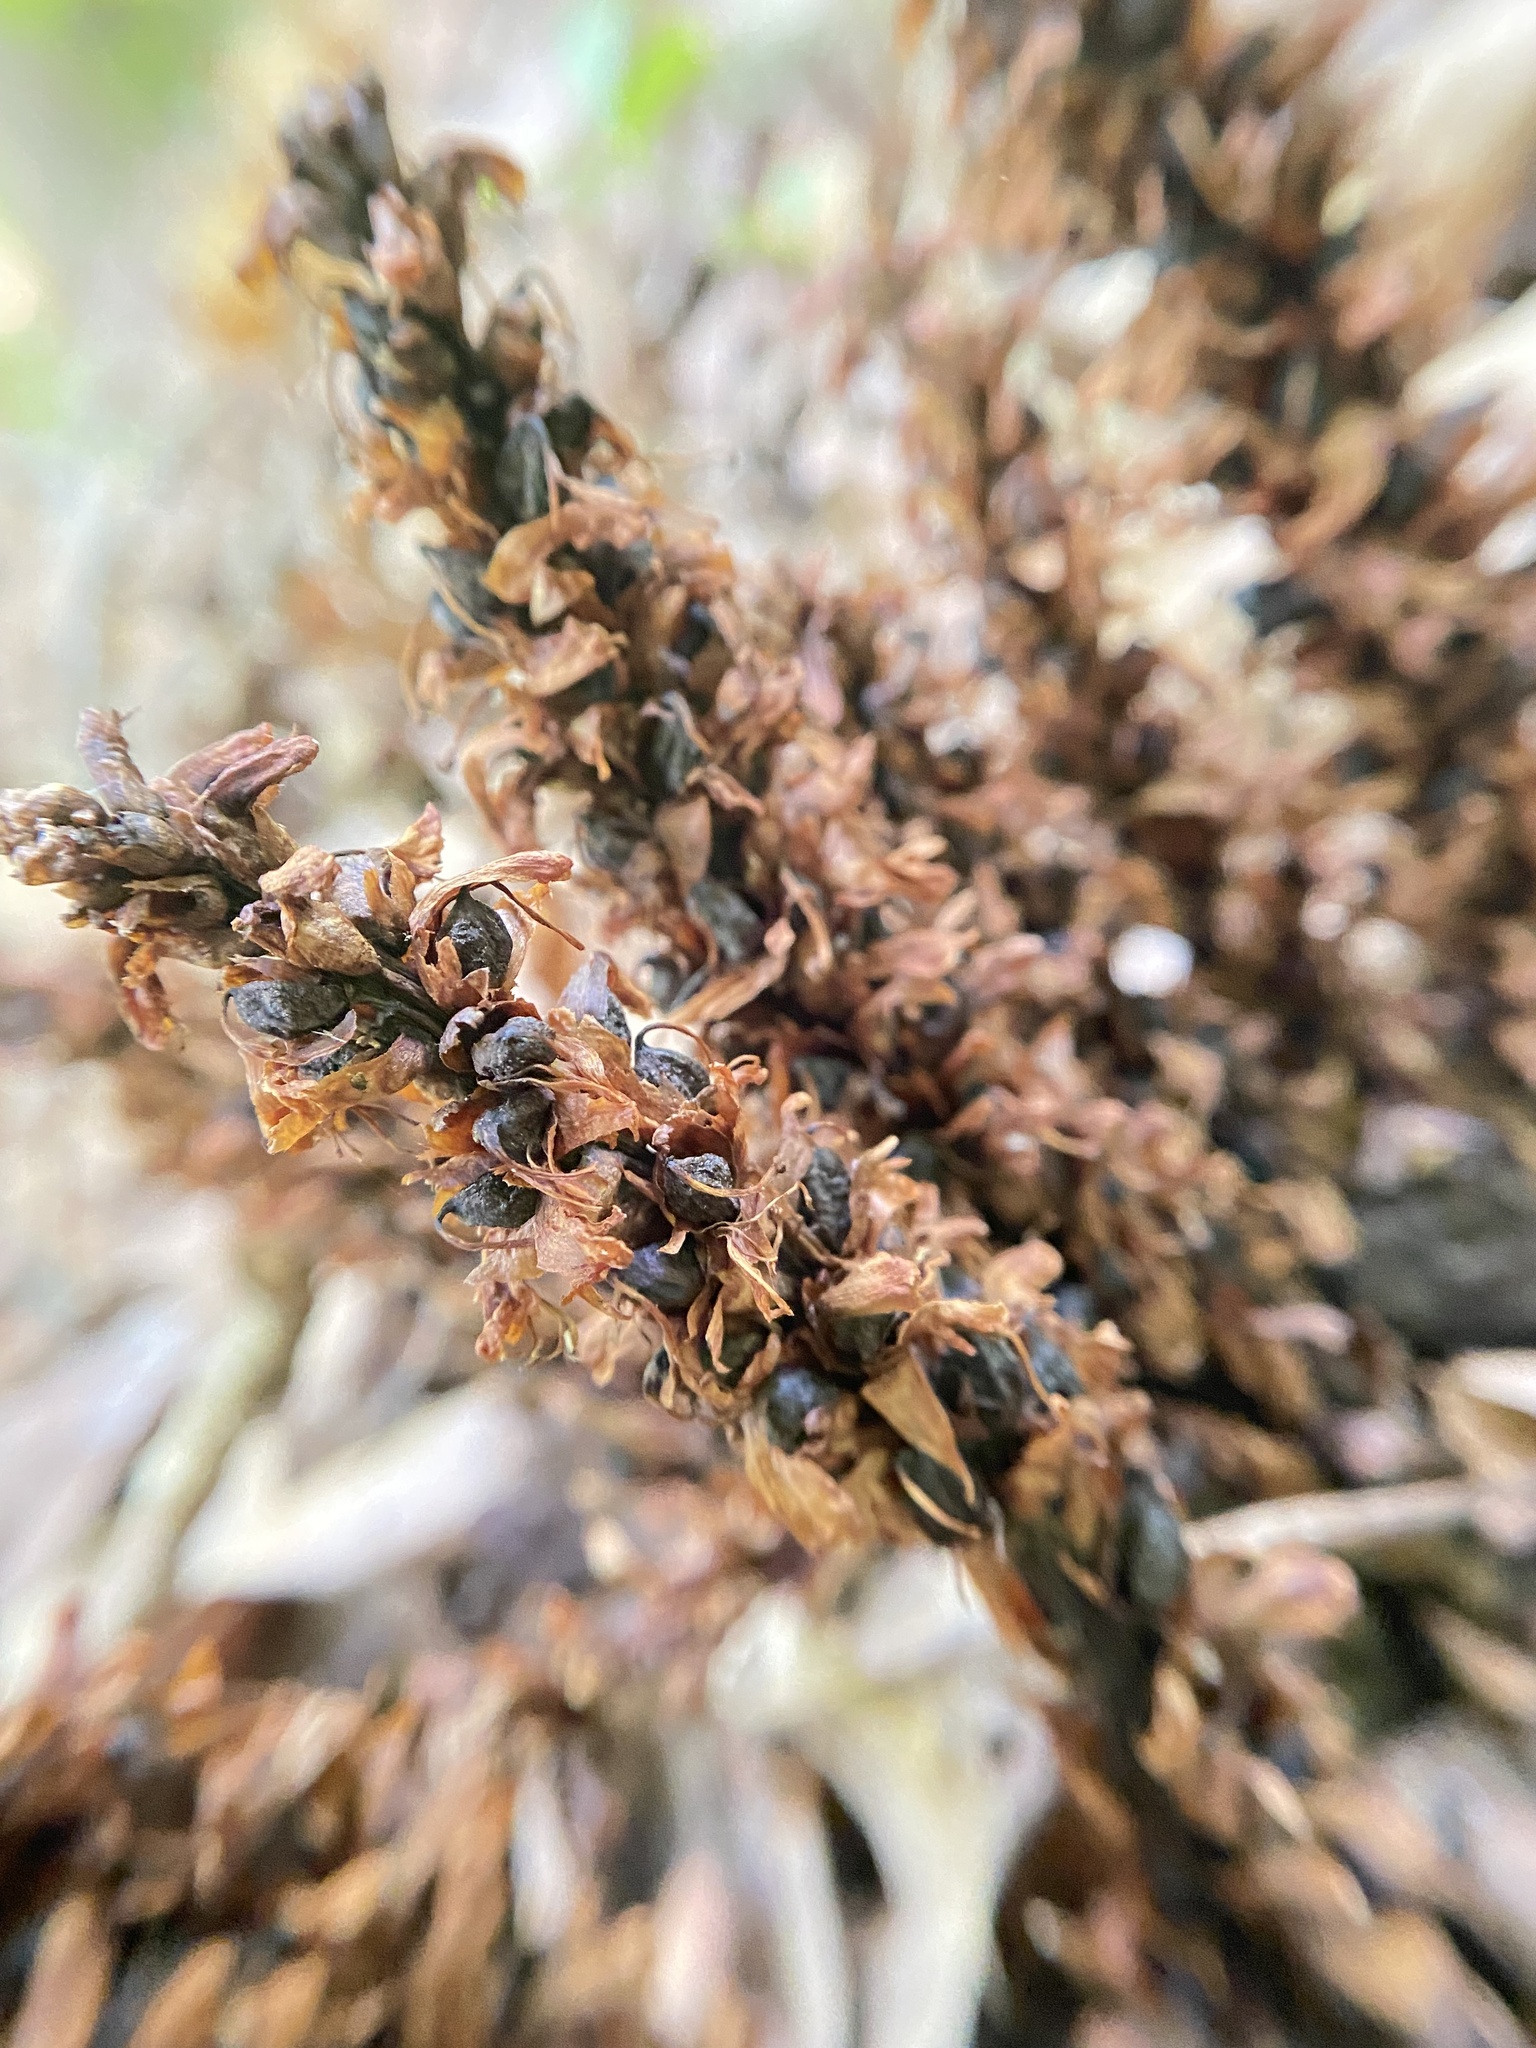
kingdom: Plantae
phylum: Tracheophyta
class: Magnoliopsida
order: Lamiales
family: Orobanchaceae
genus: Conopholis
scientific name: Conopholis americana
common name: American cancer-root
